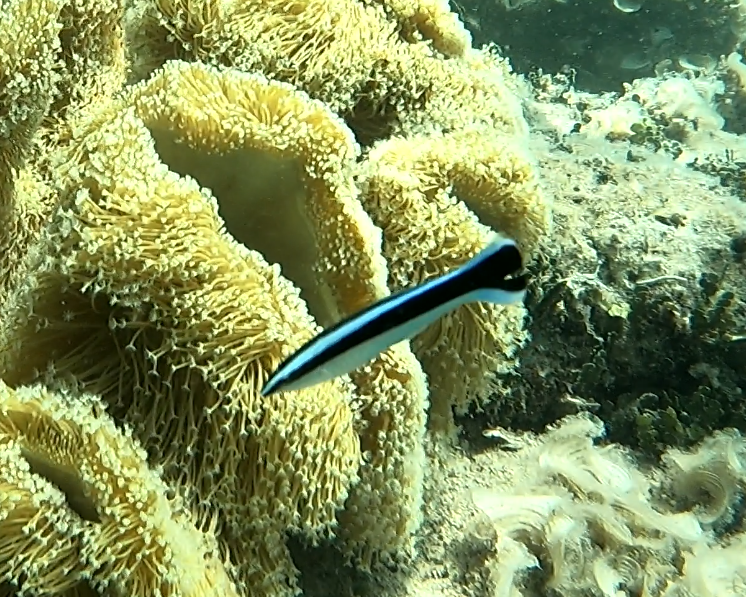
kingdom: Animalia
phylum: Chordata
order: Perciformes
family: Labridae
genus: Labroides
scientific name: Labroides dimidiatus
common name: Blue diesel wrasse
